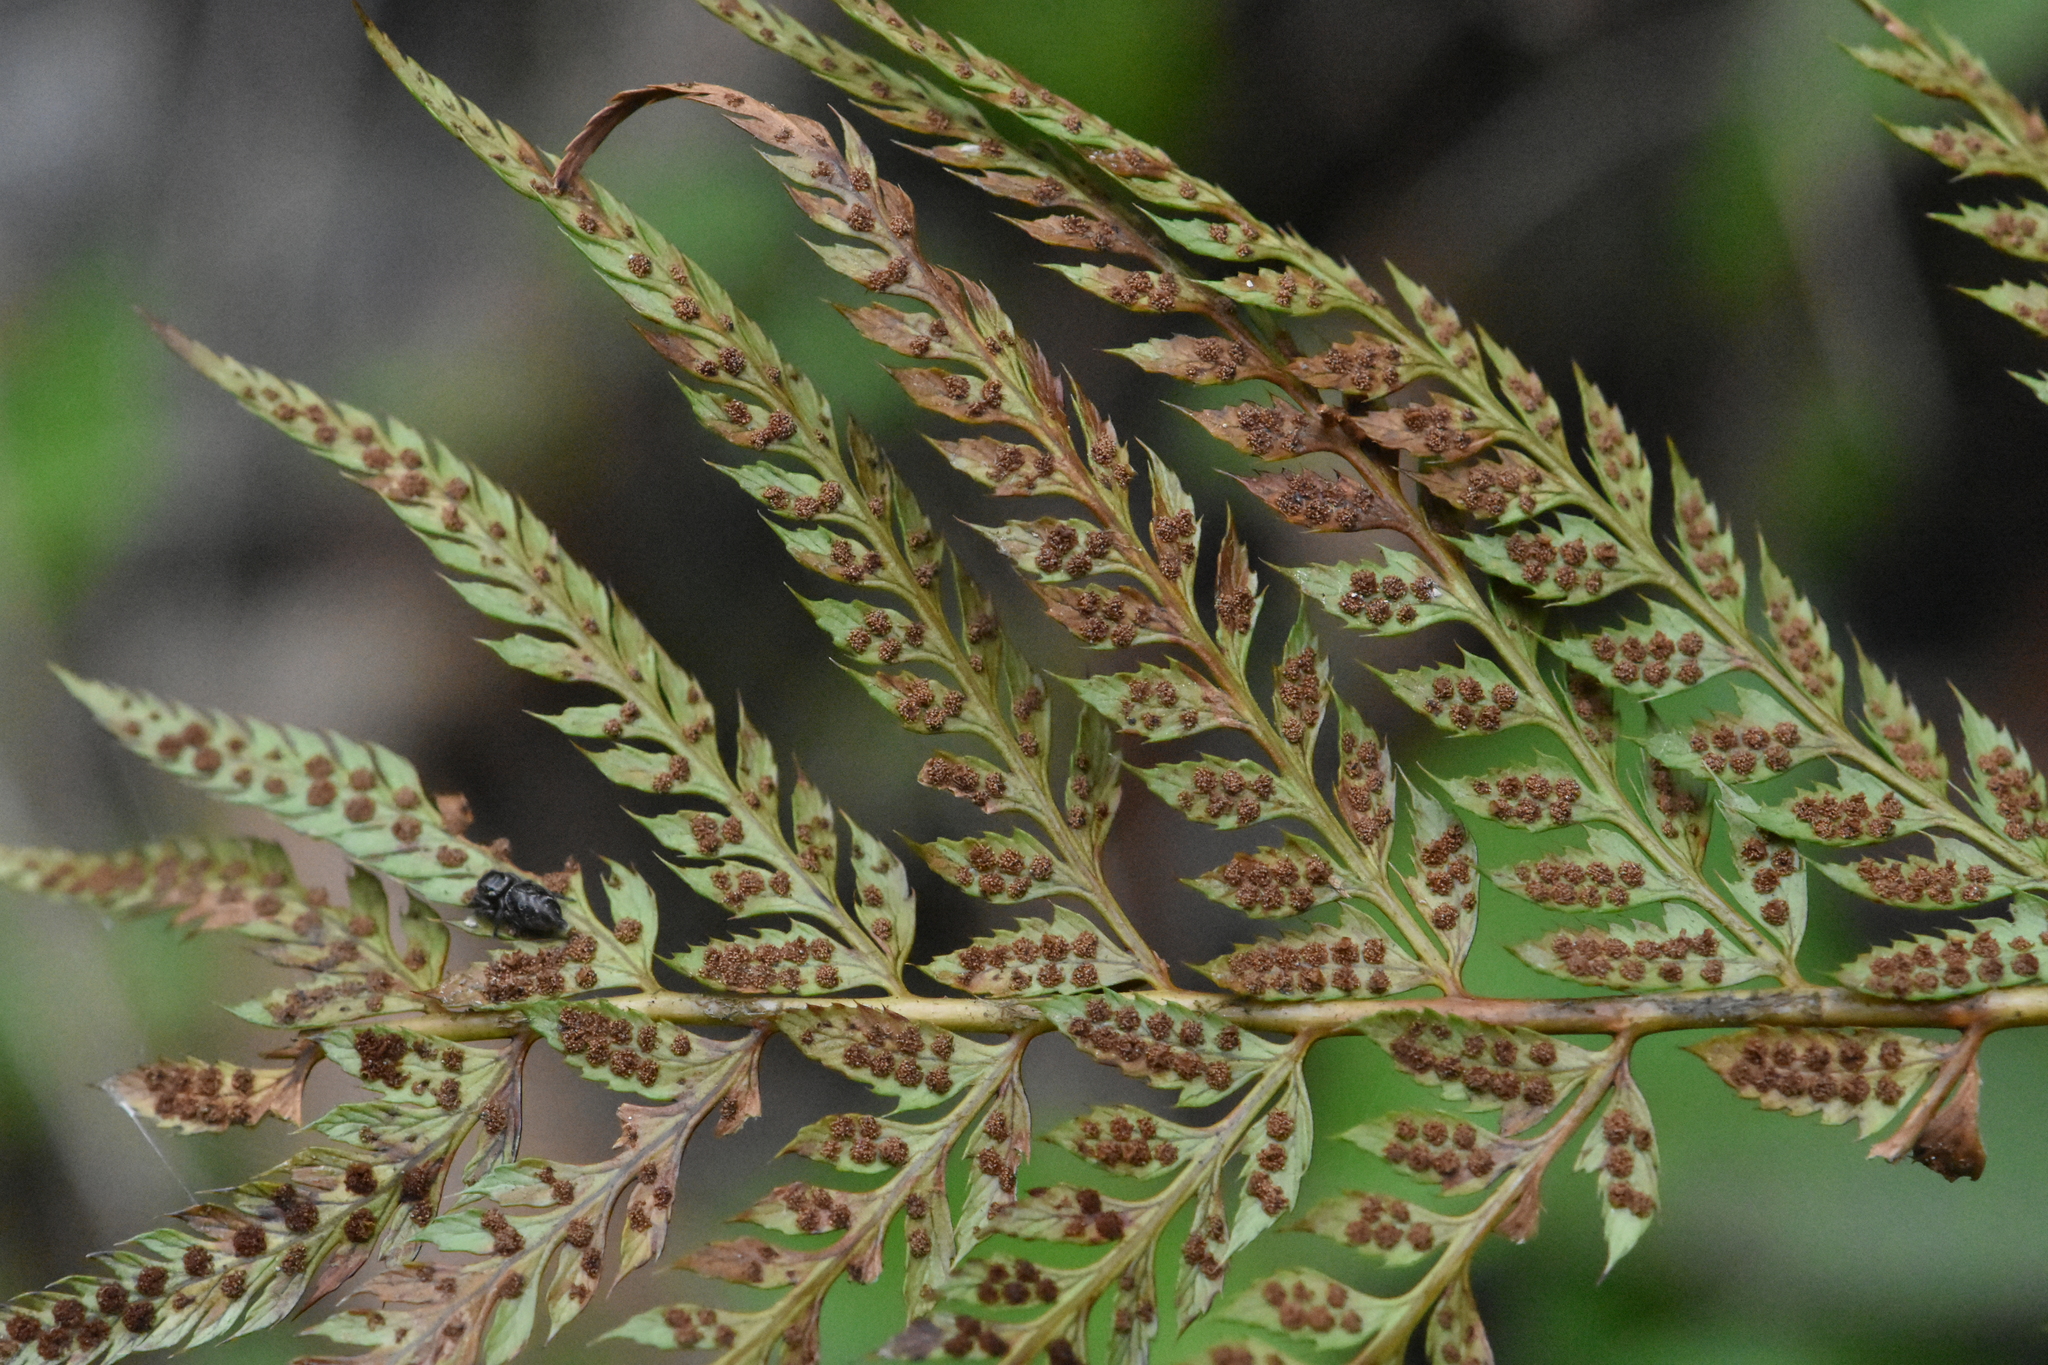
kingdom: Plantae
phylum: Tracheophyta
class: Polypodiopsida
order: Polypodiales
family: Dryopteridaceae
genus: Polystichum
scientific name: Polystichum aculeatum
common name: Hard shield-fern
